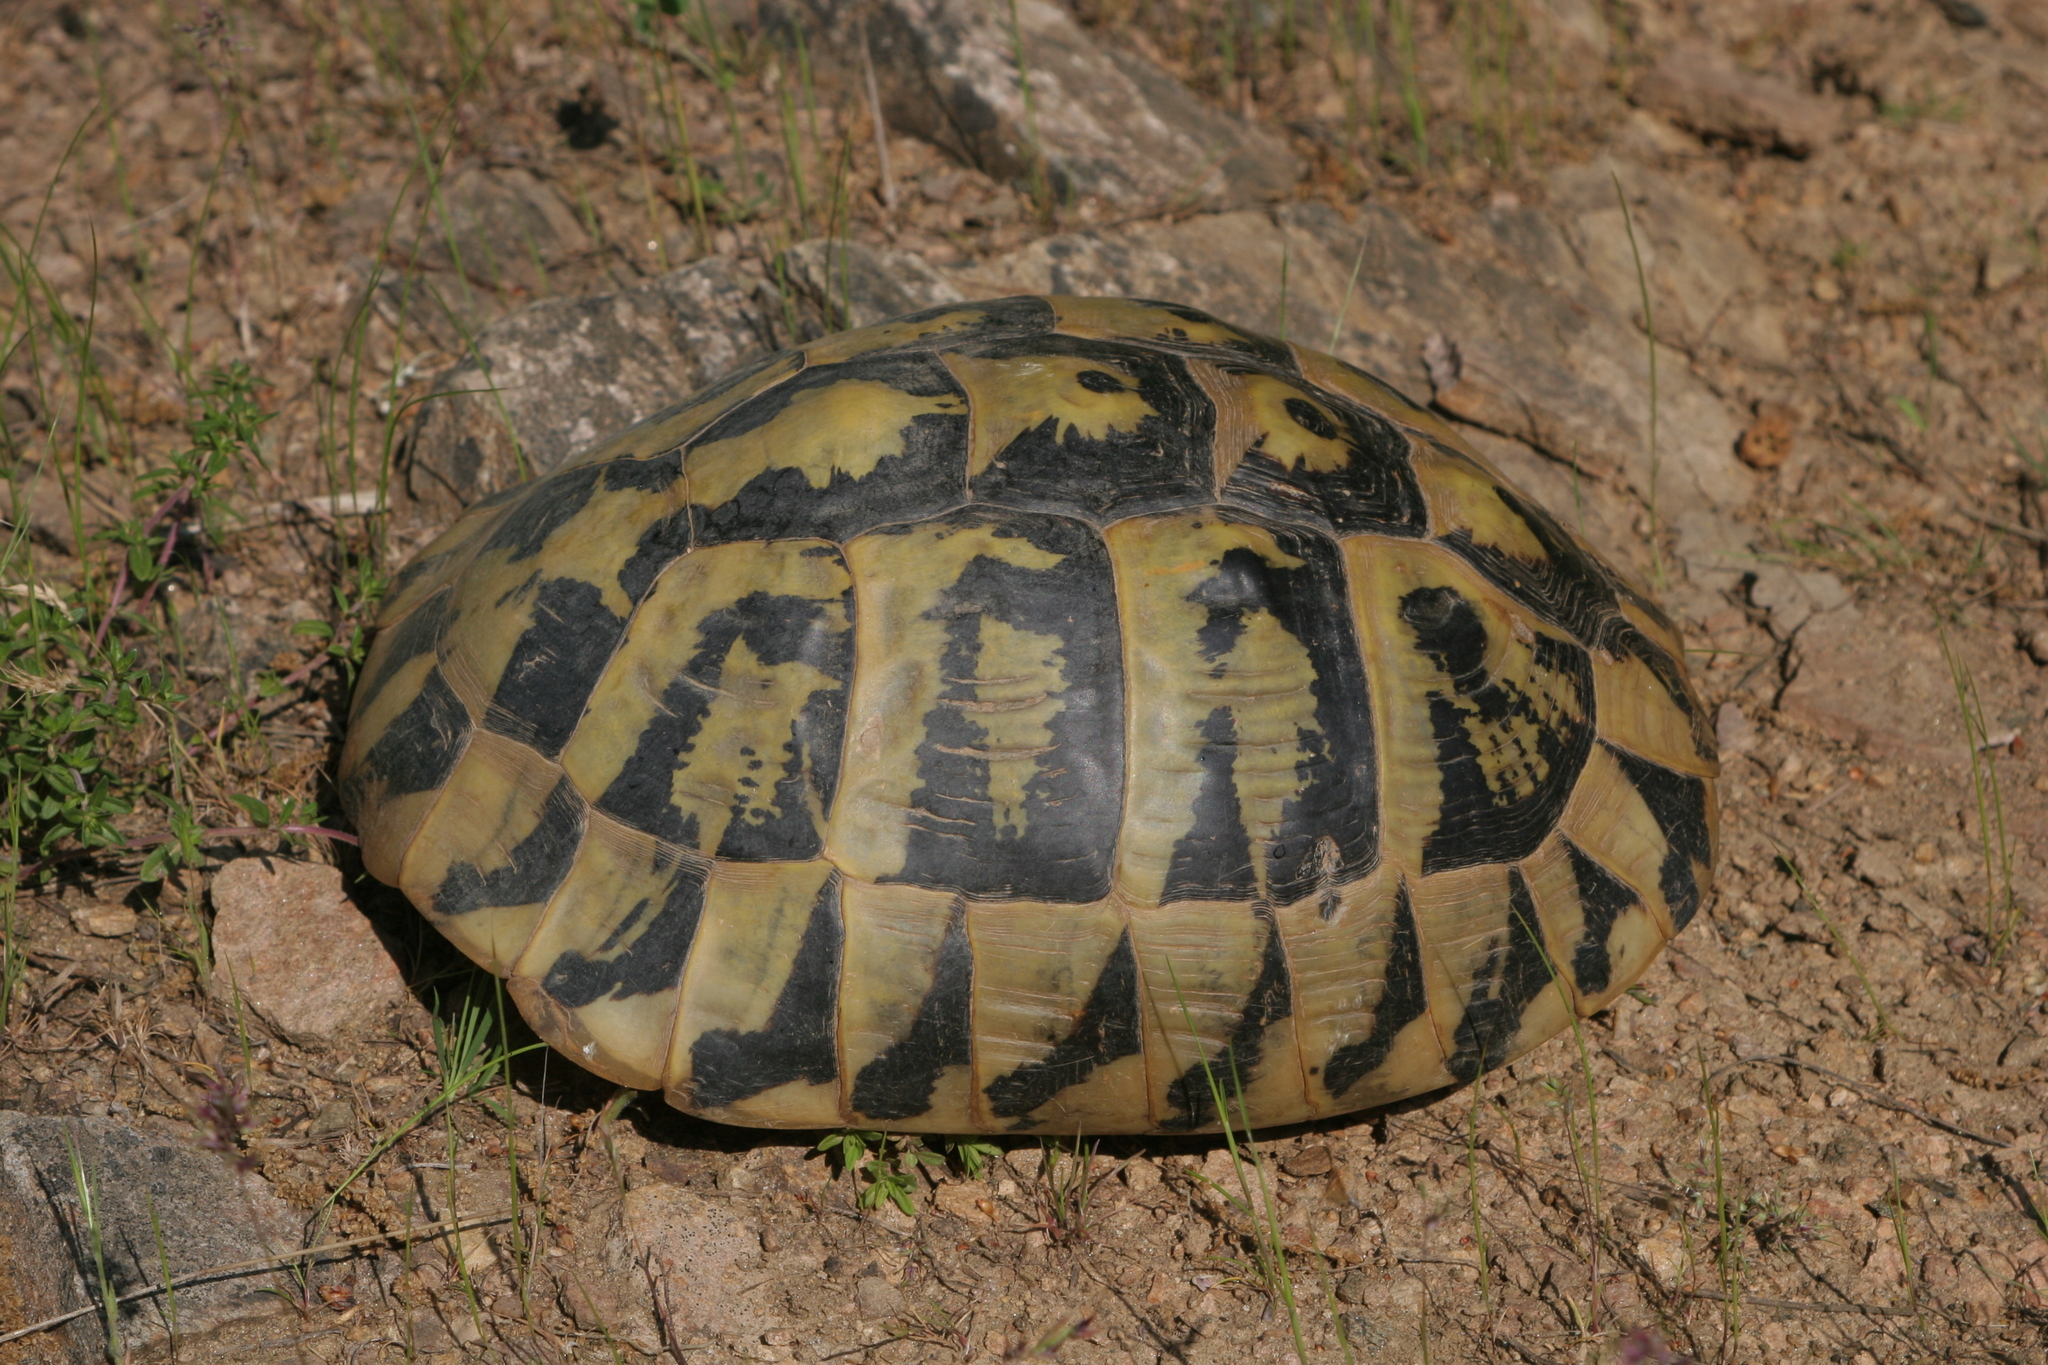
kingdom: Animalia
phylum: Chordata
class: Testudines
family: Testudinidae
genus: Testudo
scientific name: Testudo graeca
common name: Common tortoise
